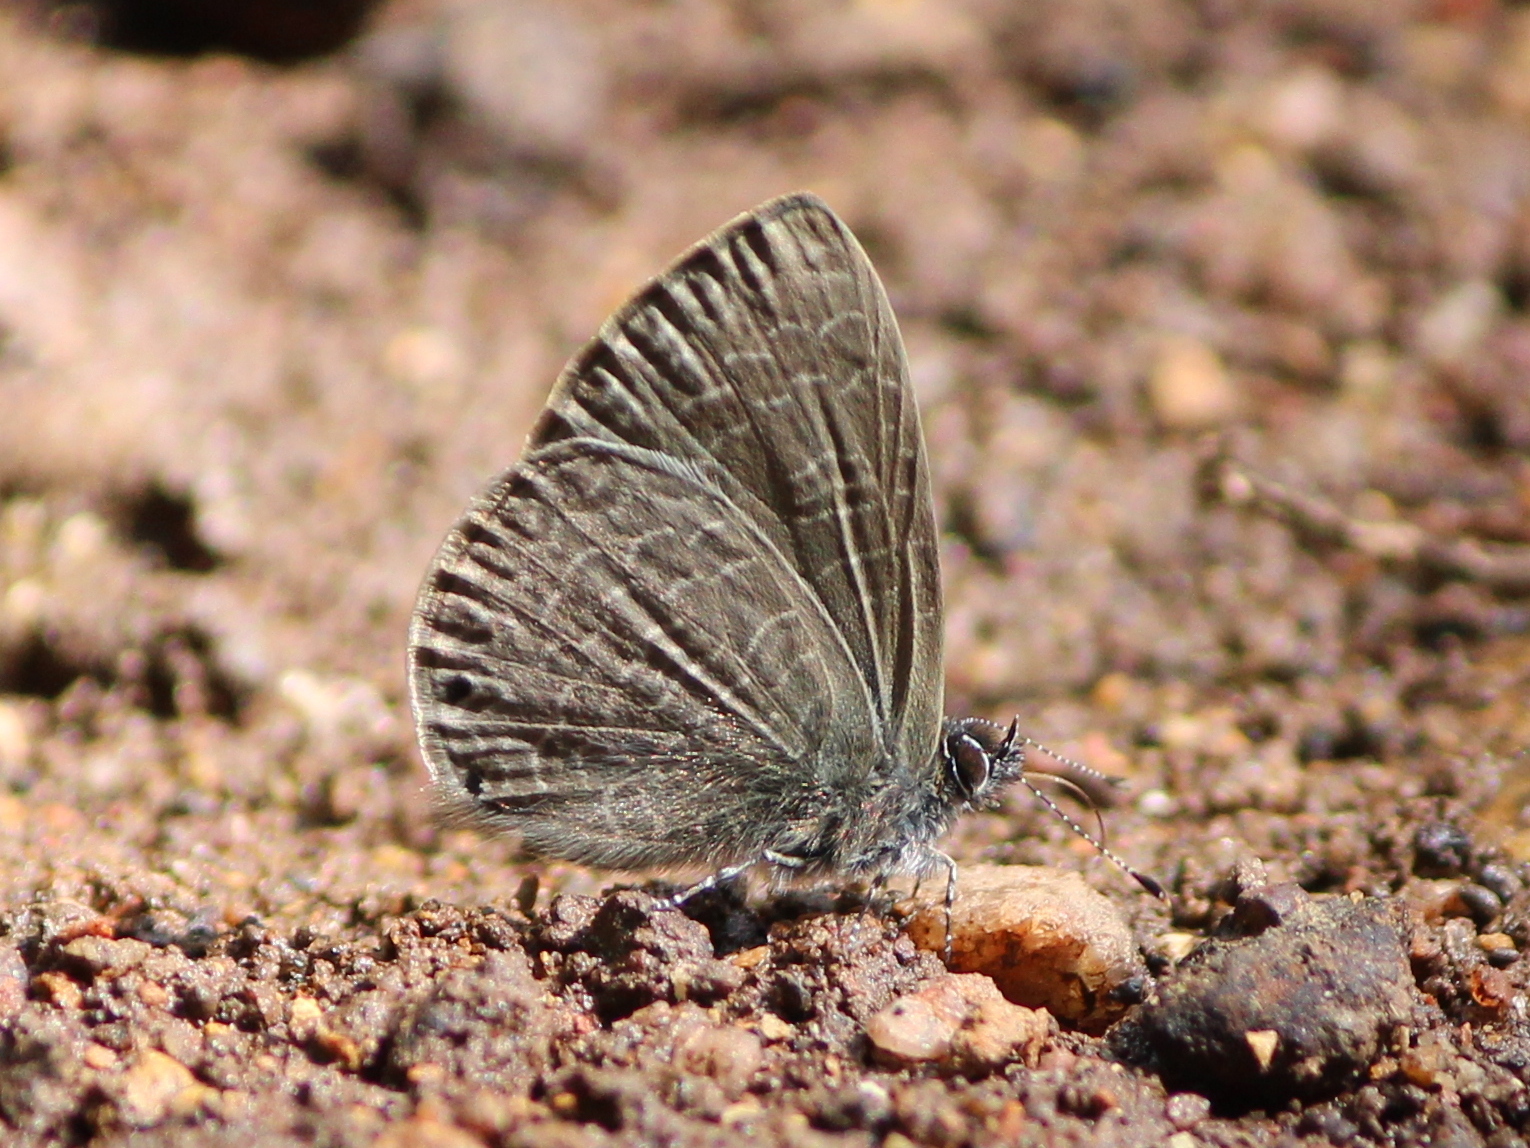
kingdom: Animalia
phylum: Arthropoda
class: Insecta
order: Lepidoptera
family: Lycaenidae
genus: Petrelaea
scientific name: Petrelaea dana
